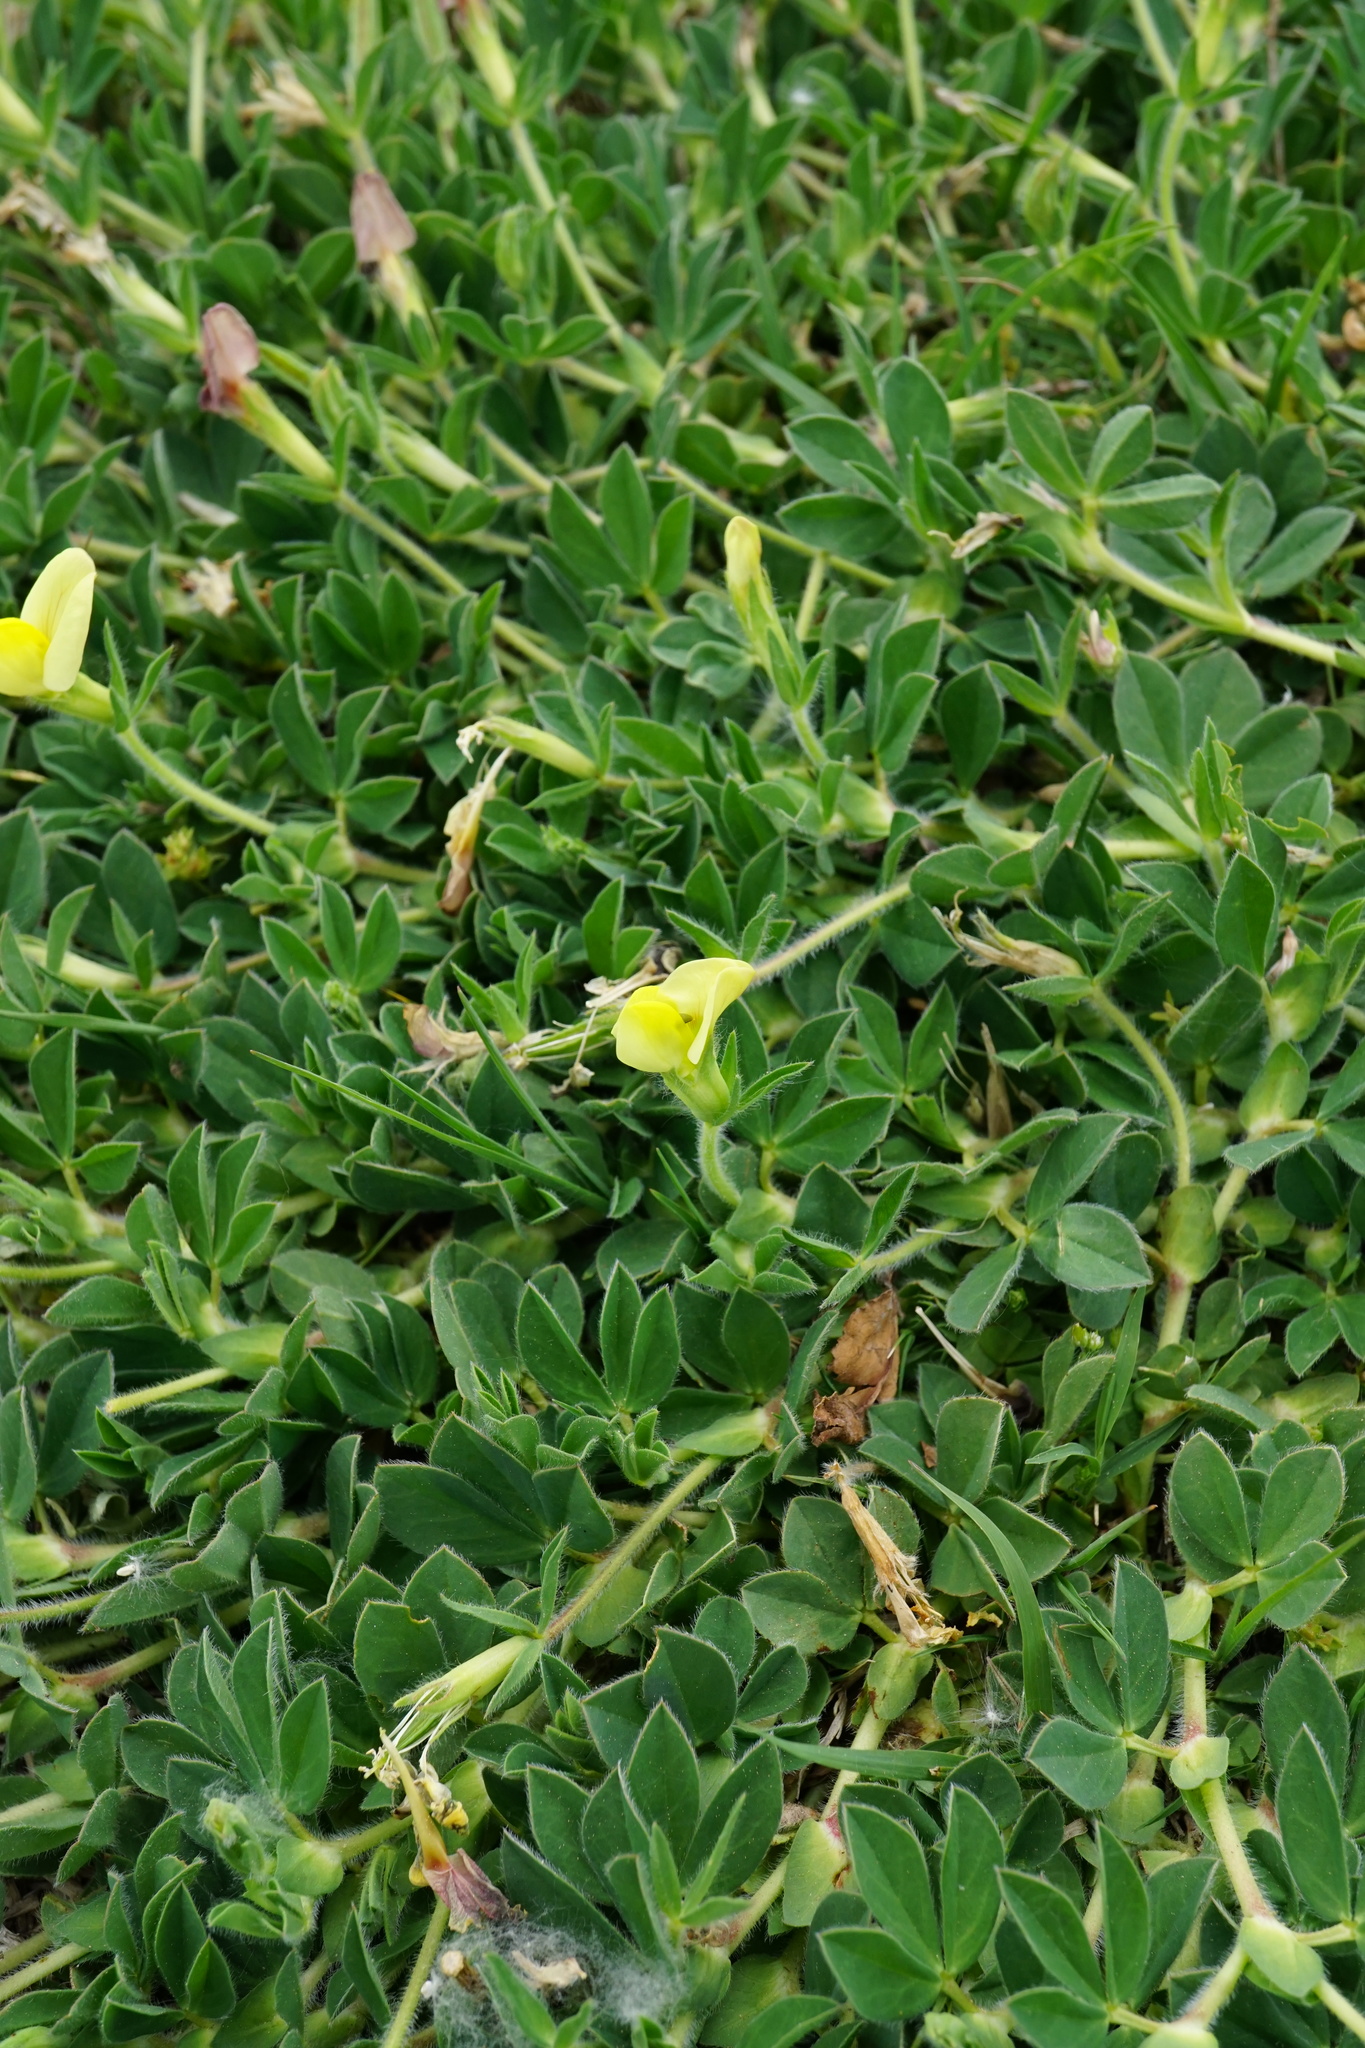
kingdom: Plantae
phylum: Tracheophyta
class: Magnoliopsida
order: Fabales
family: Fabaceae
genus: Lotus
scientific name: Lotus maritimus
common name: Dragon's-teeth
